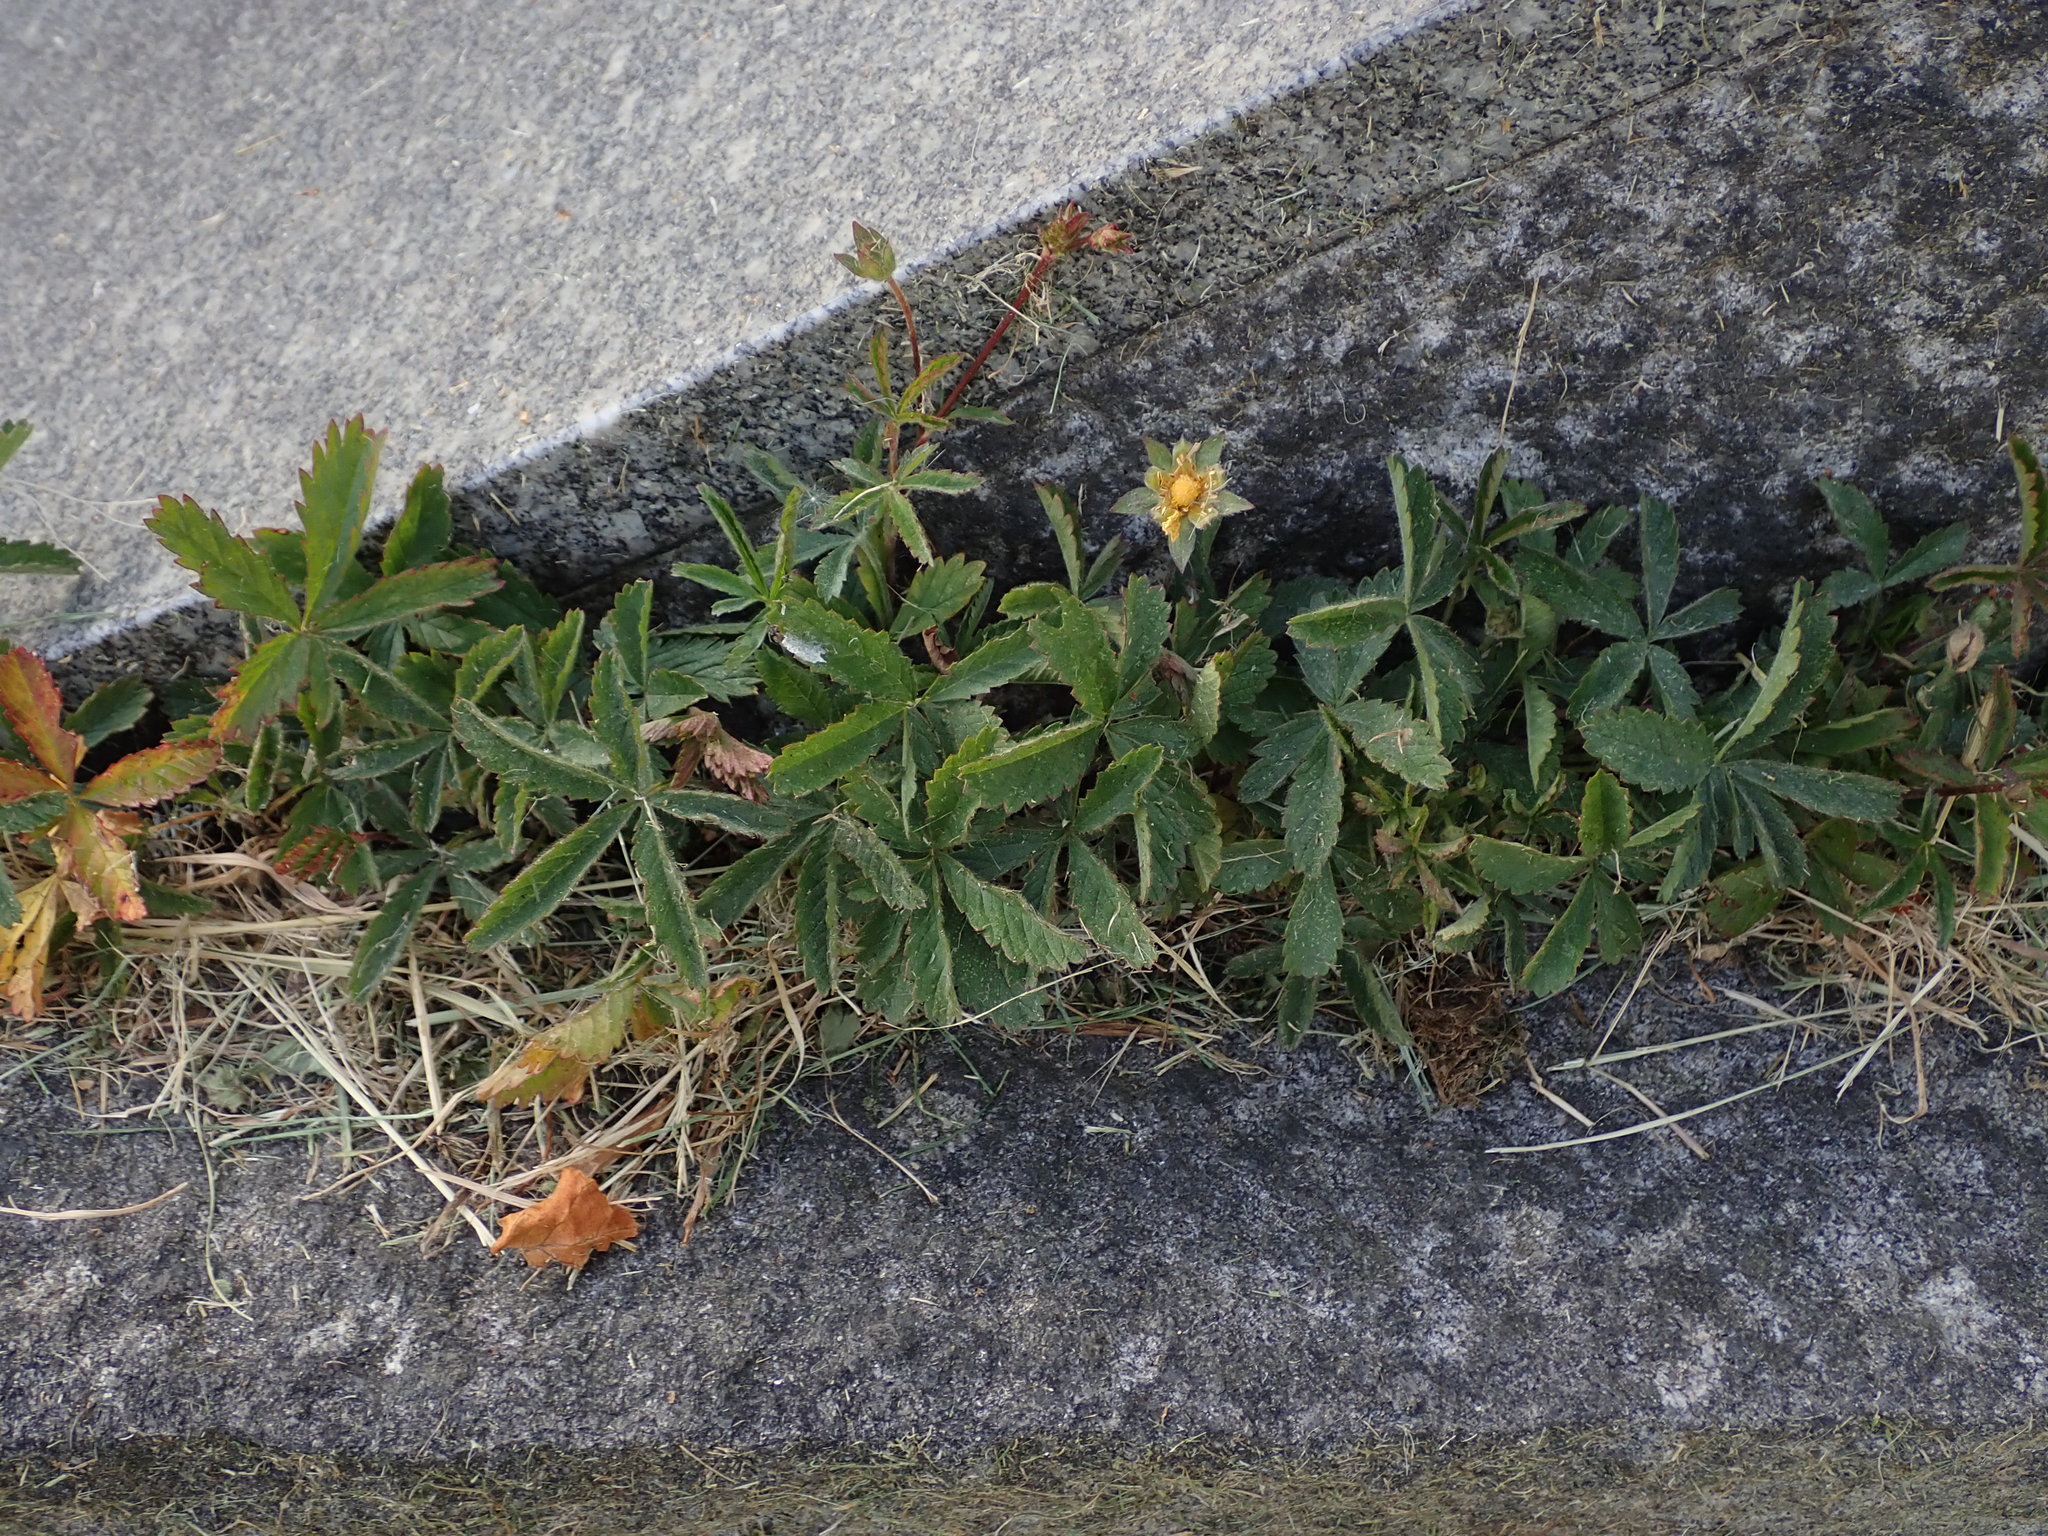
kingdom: Plantae
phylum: Tracheophyta
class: Magnoliopsida
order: Rosales
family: Rosaceae
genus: Potentilla
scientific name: Potentilla reptans
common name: Creeping cinquefoil
